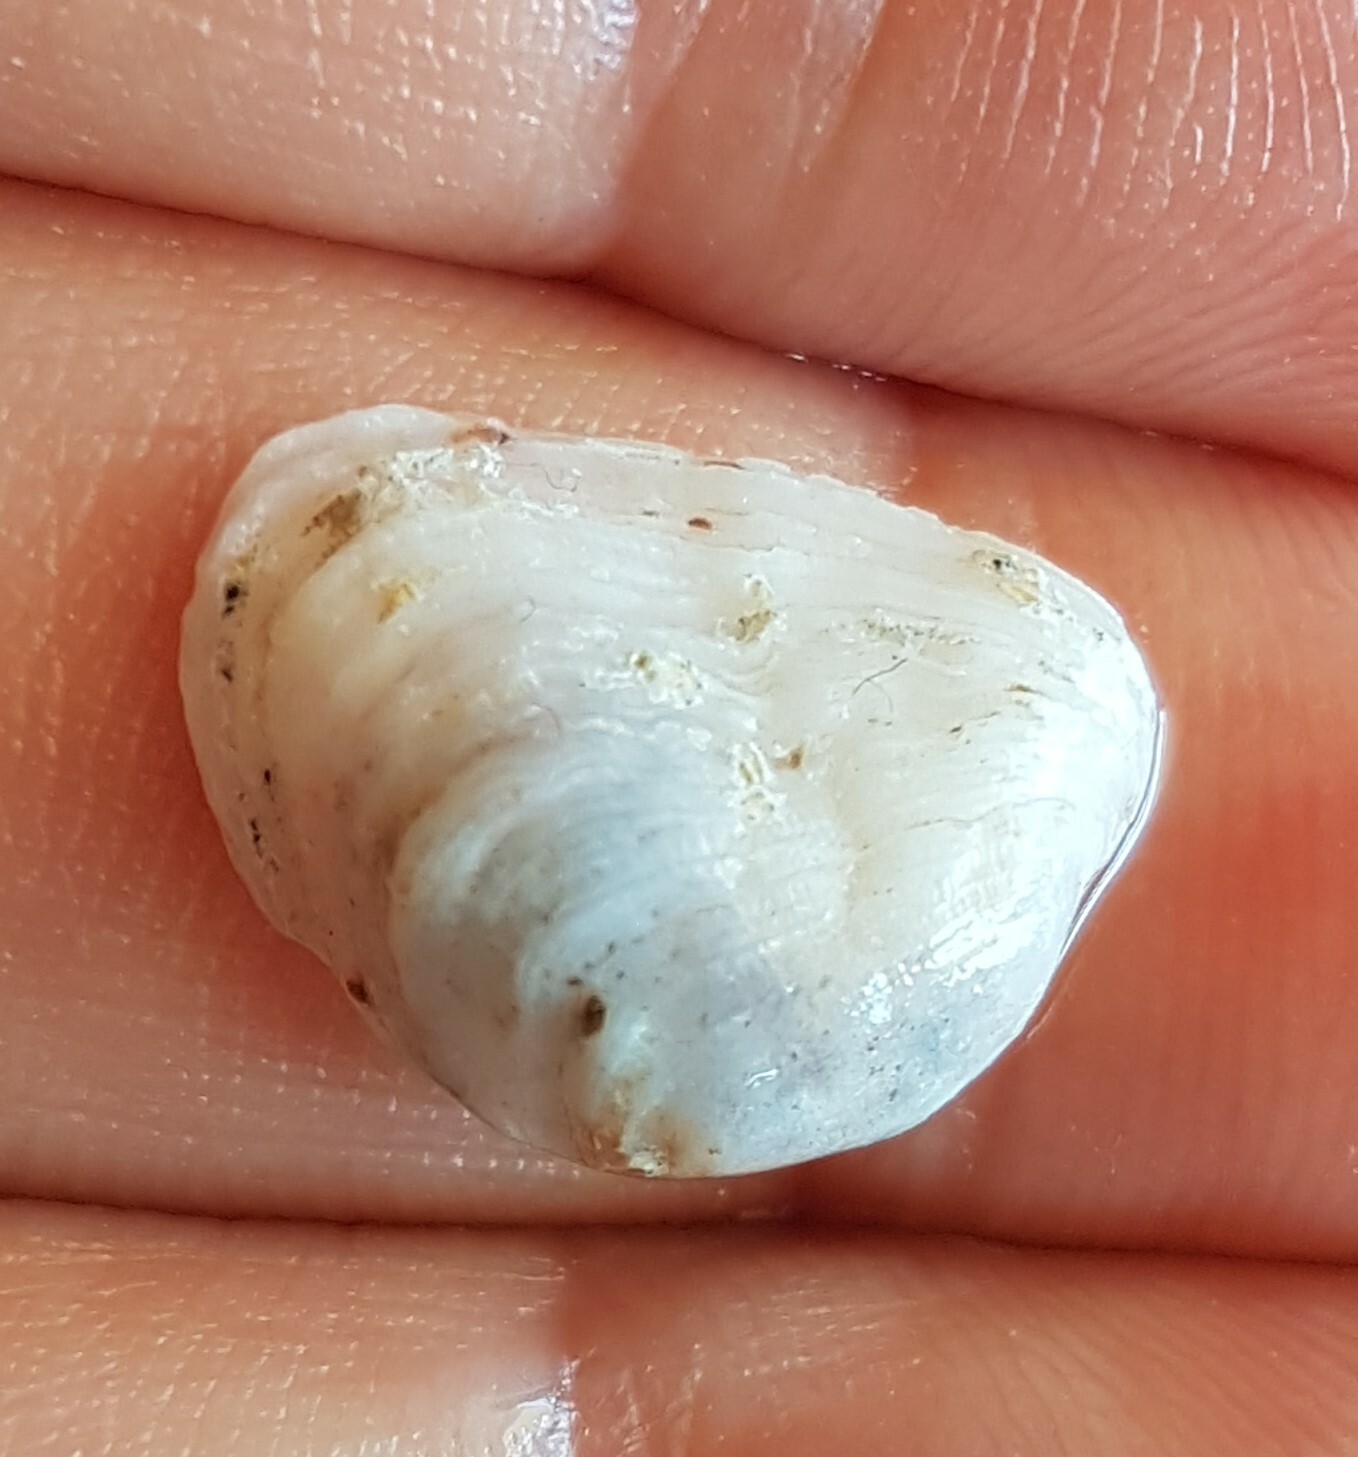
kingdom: Animalia
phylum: Mollusca
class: Bivalvia
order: Venerida
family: Veneridae
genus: Irus
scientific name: Irus irus
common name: Irus clam
